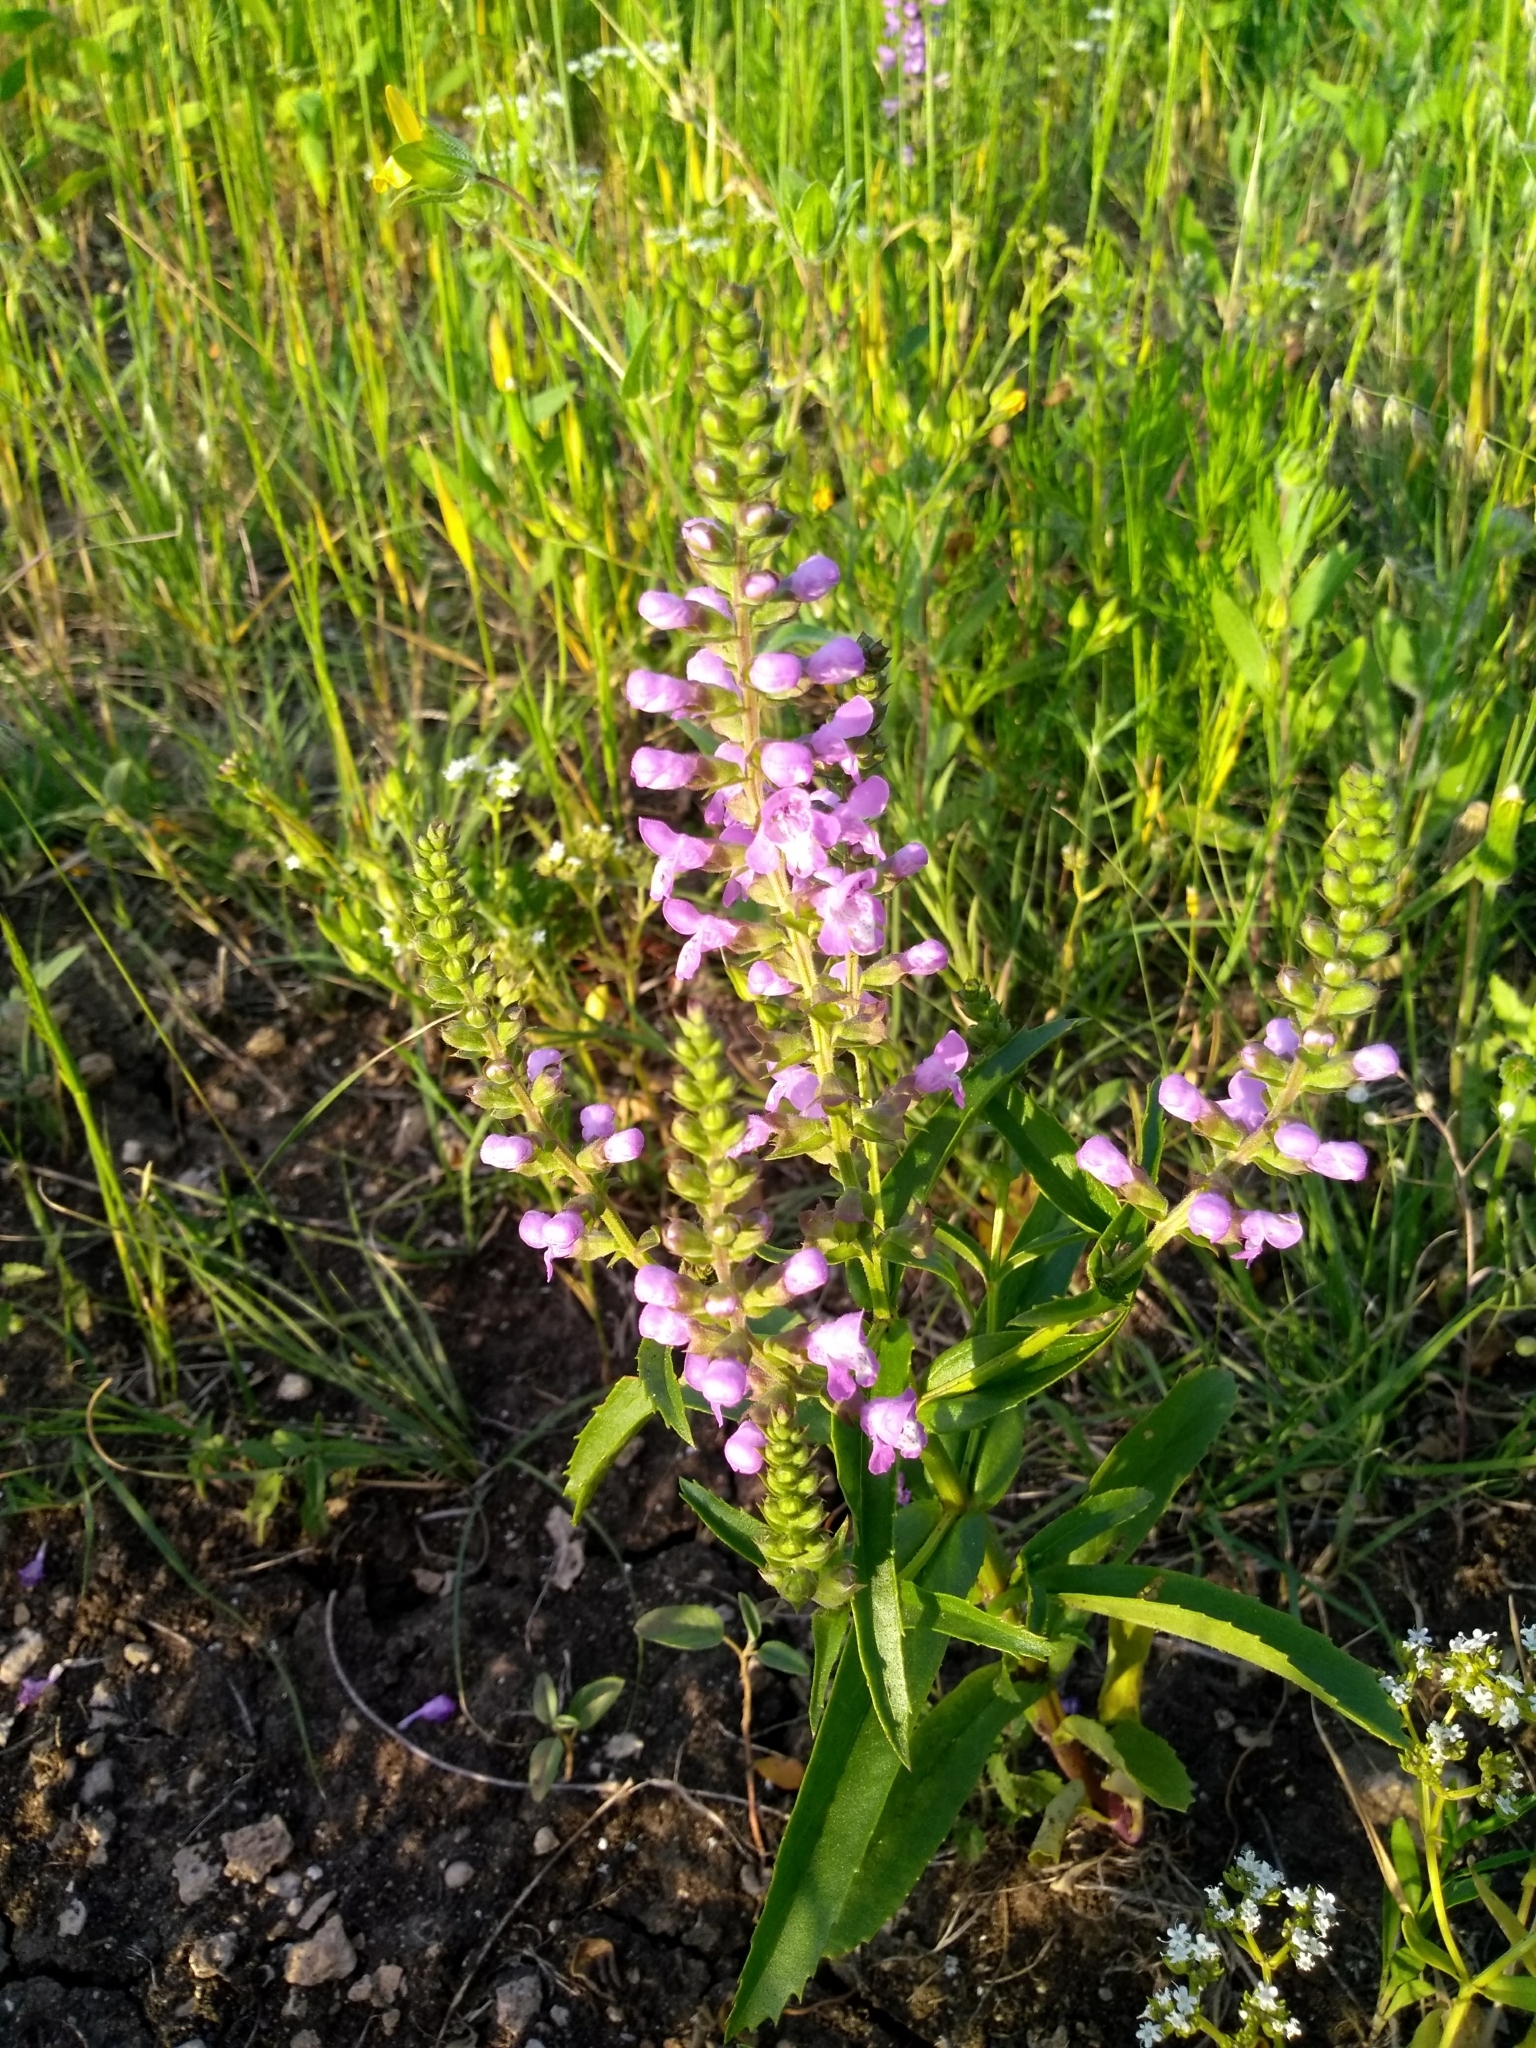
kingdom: Plantae
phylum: Tracheophyta
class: Magnoliopsida
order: Lamiales
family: Lamiaceae
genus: Warnockia
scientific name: Warnockia scutellarioides
